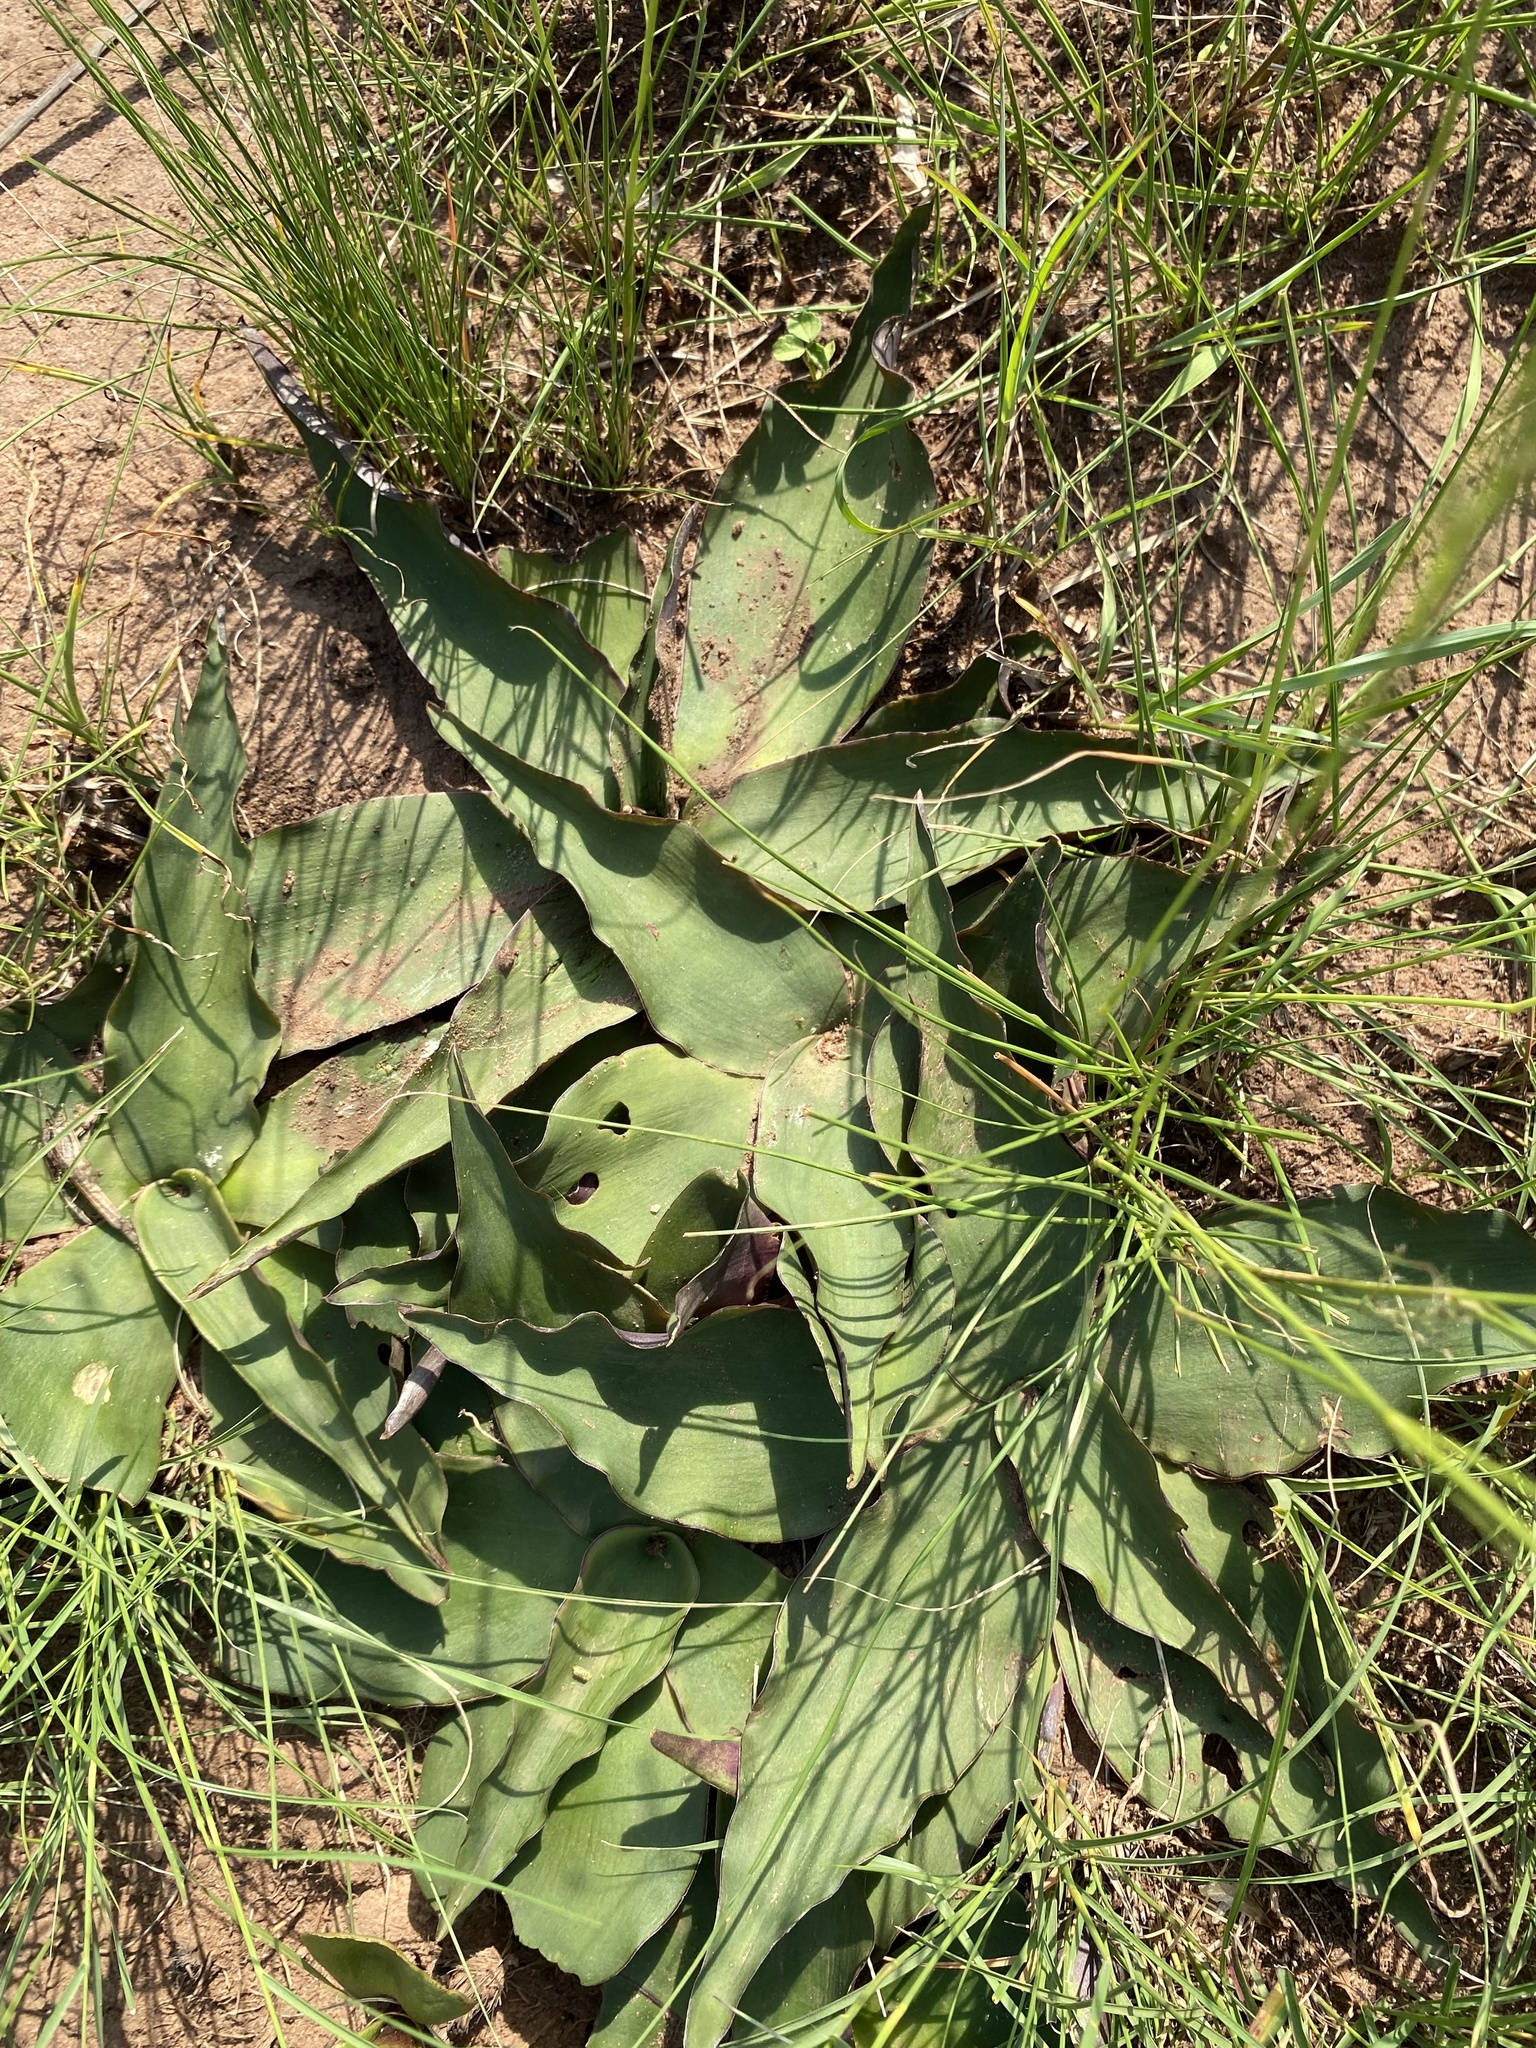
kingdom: Plantae
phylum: Tracheophyta
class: Liliopsida
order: Asparagales
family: Asparagaceae
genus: Ledebouria
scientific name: Ledebouria ovatifolia
